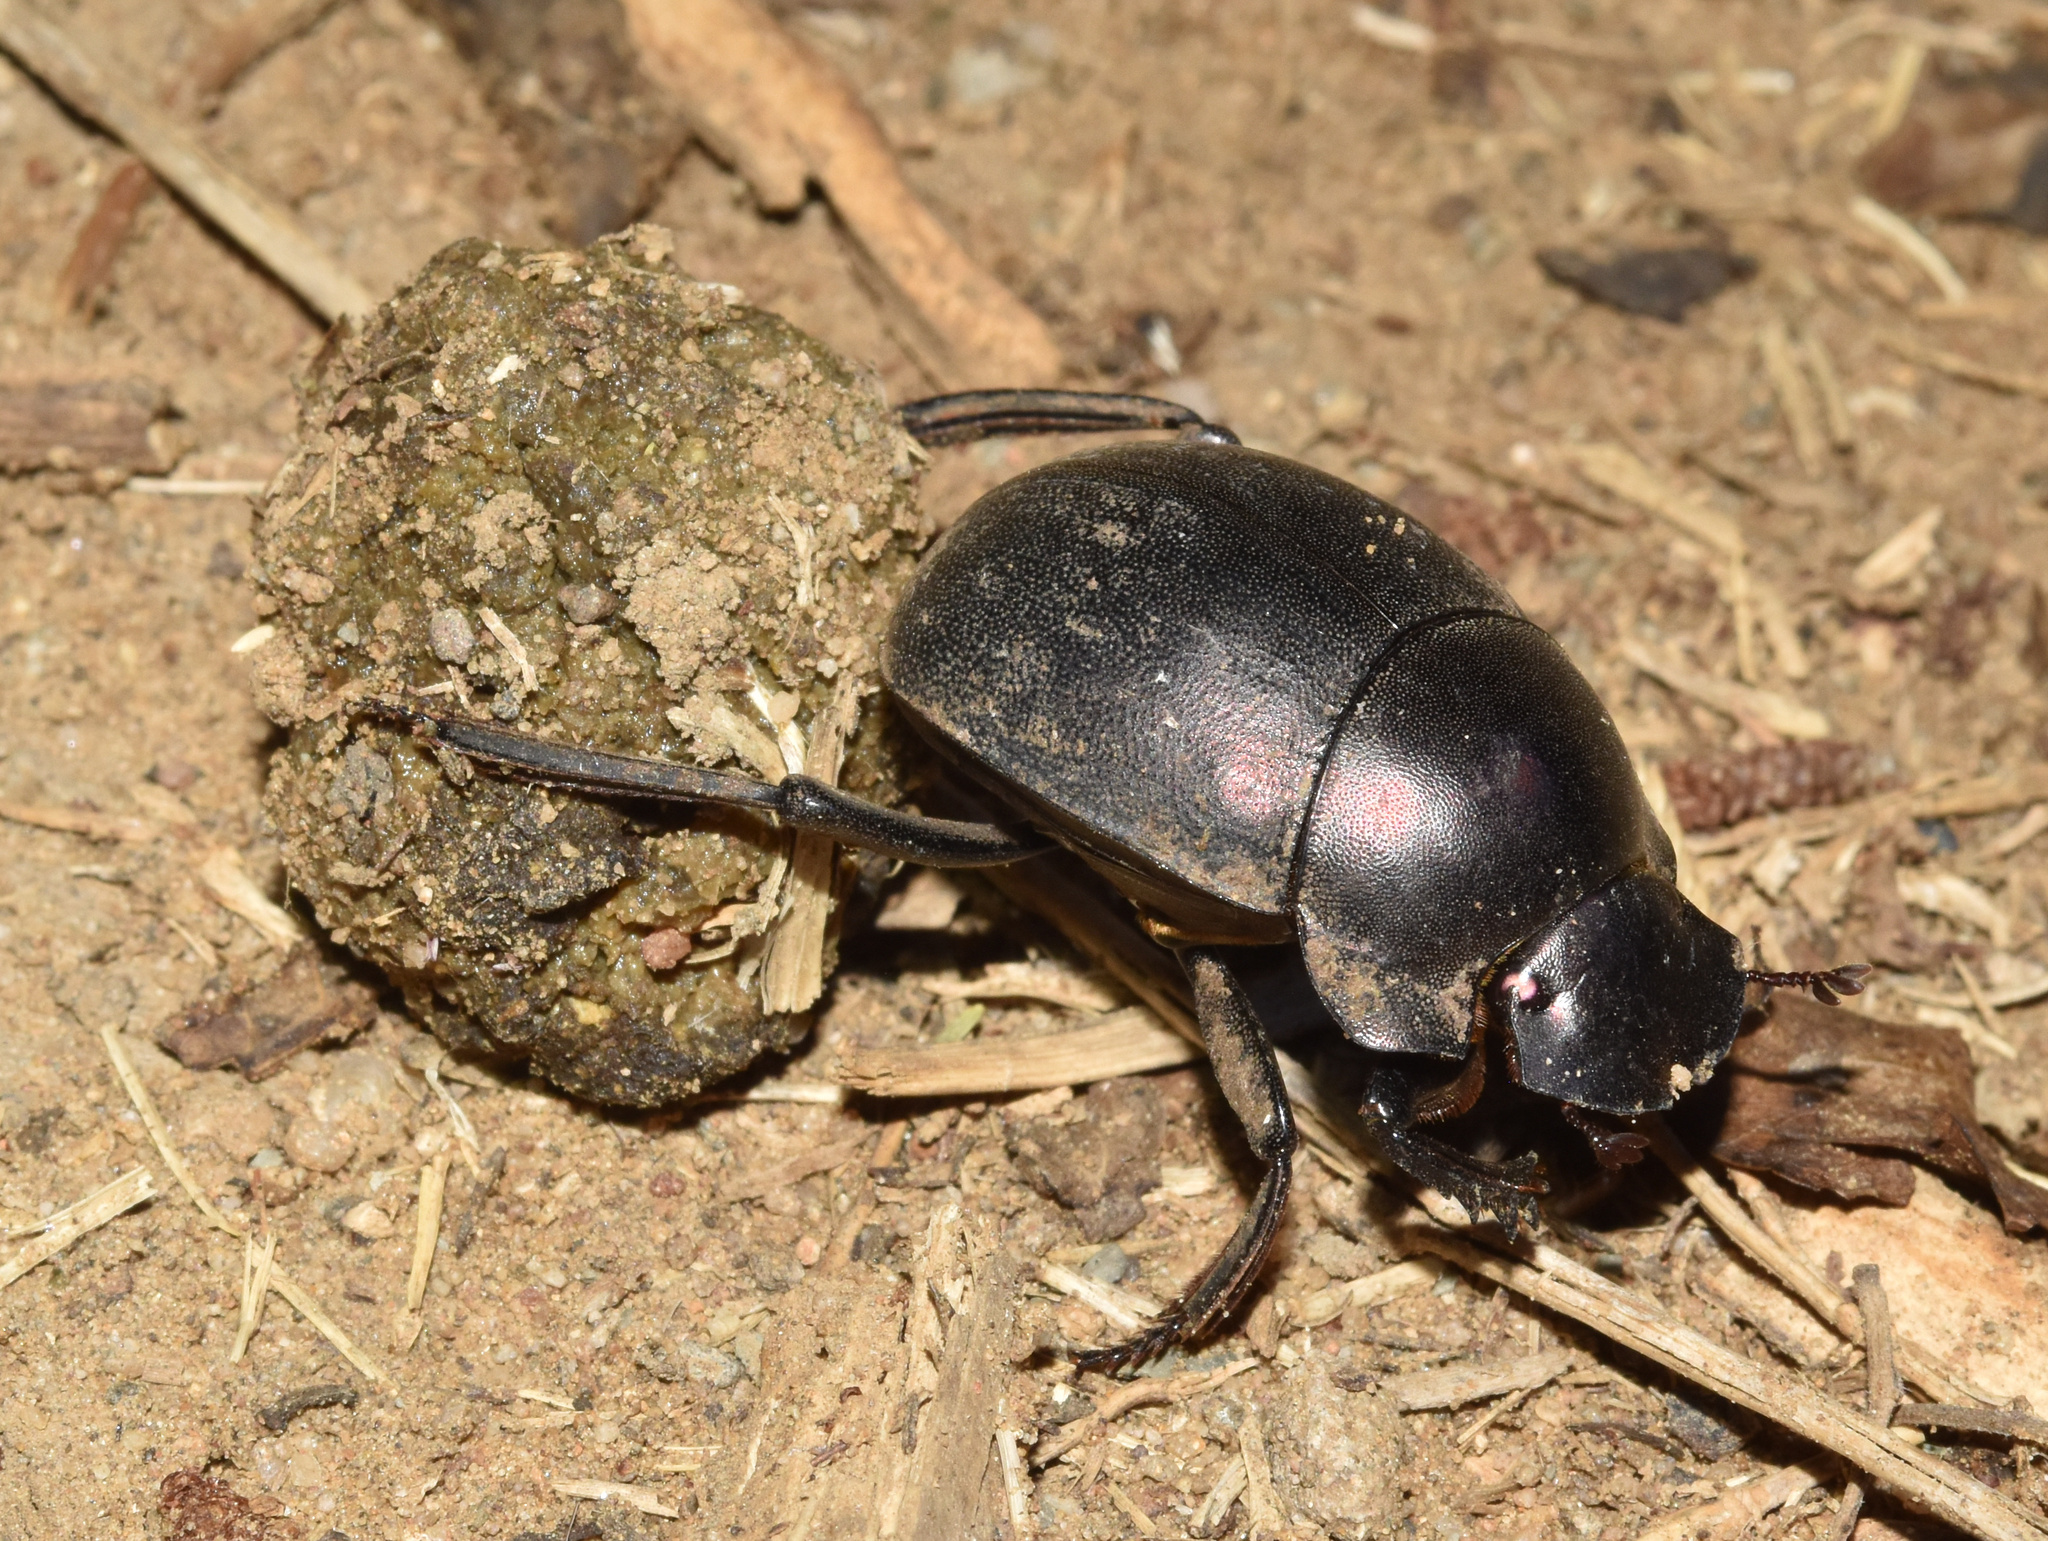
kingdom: Animalia
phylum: Arthropoda
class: Insecta
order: Coleoptera
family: Scarabaeidae
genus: Chalconotus
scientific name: Chalconotus convexus
